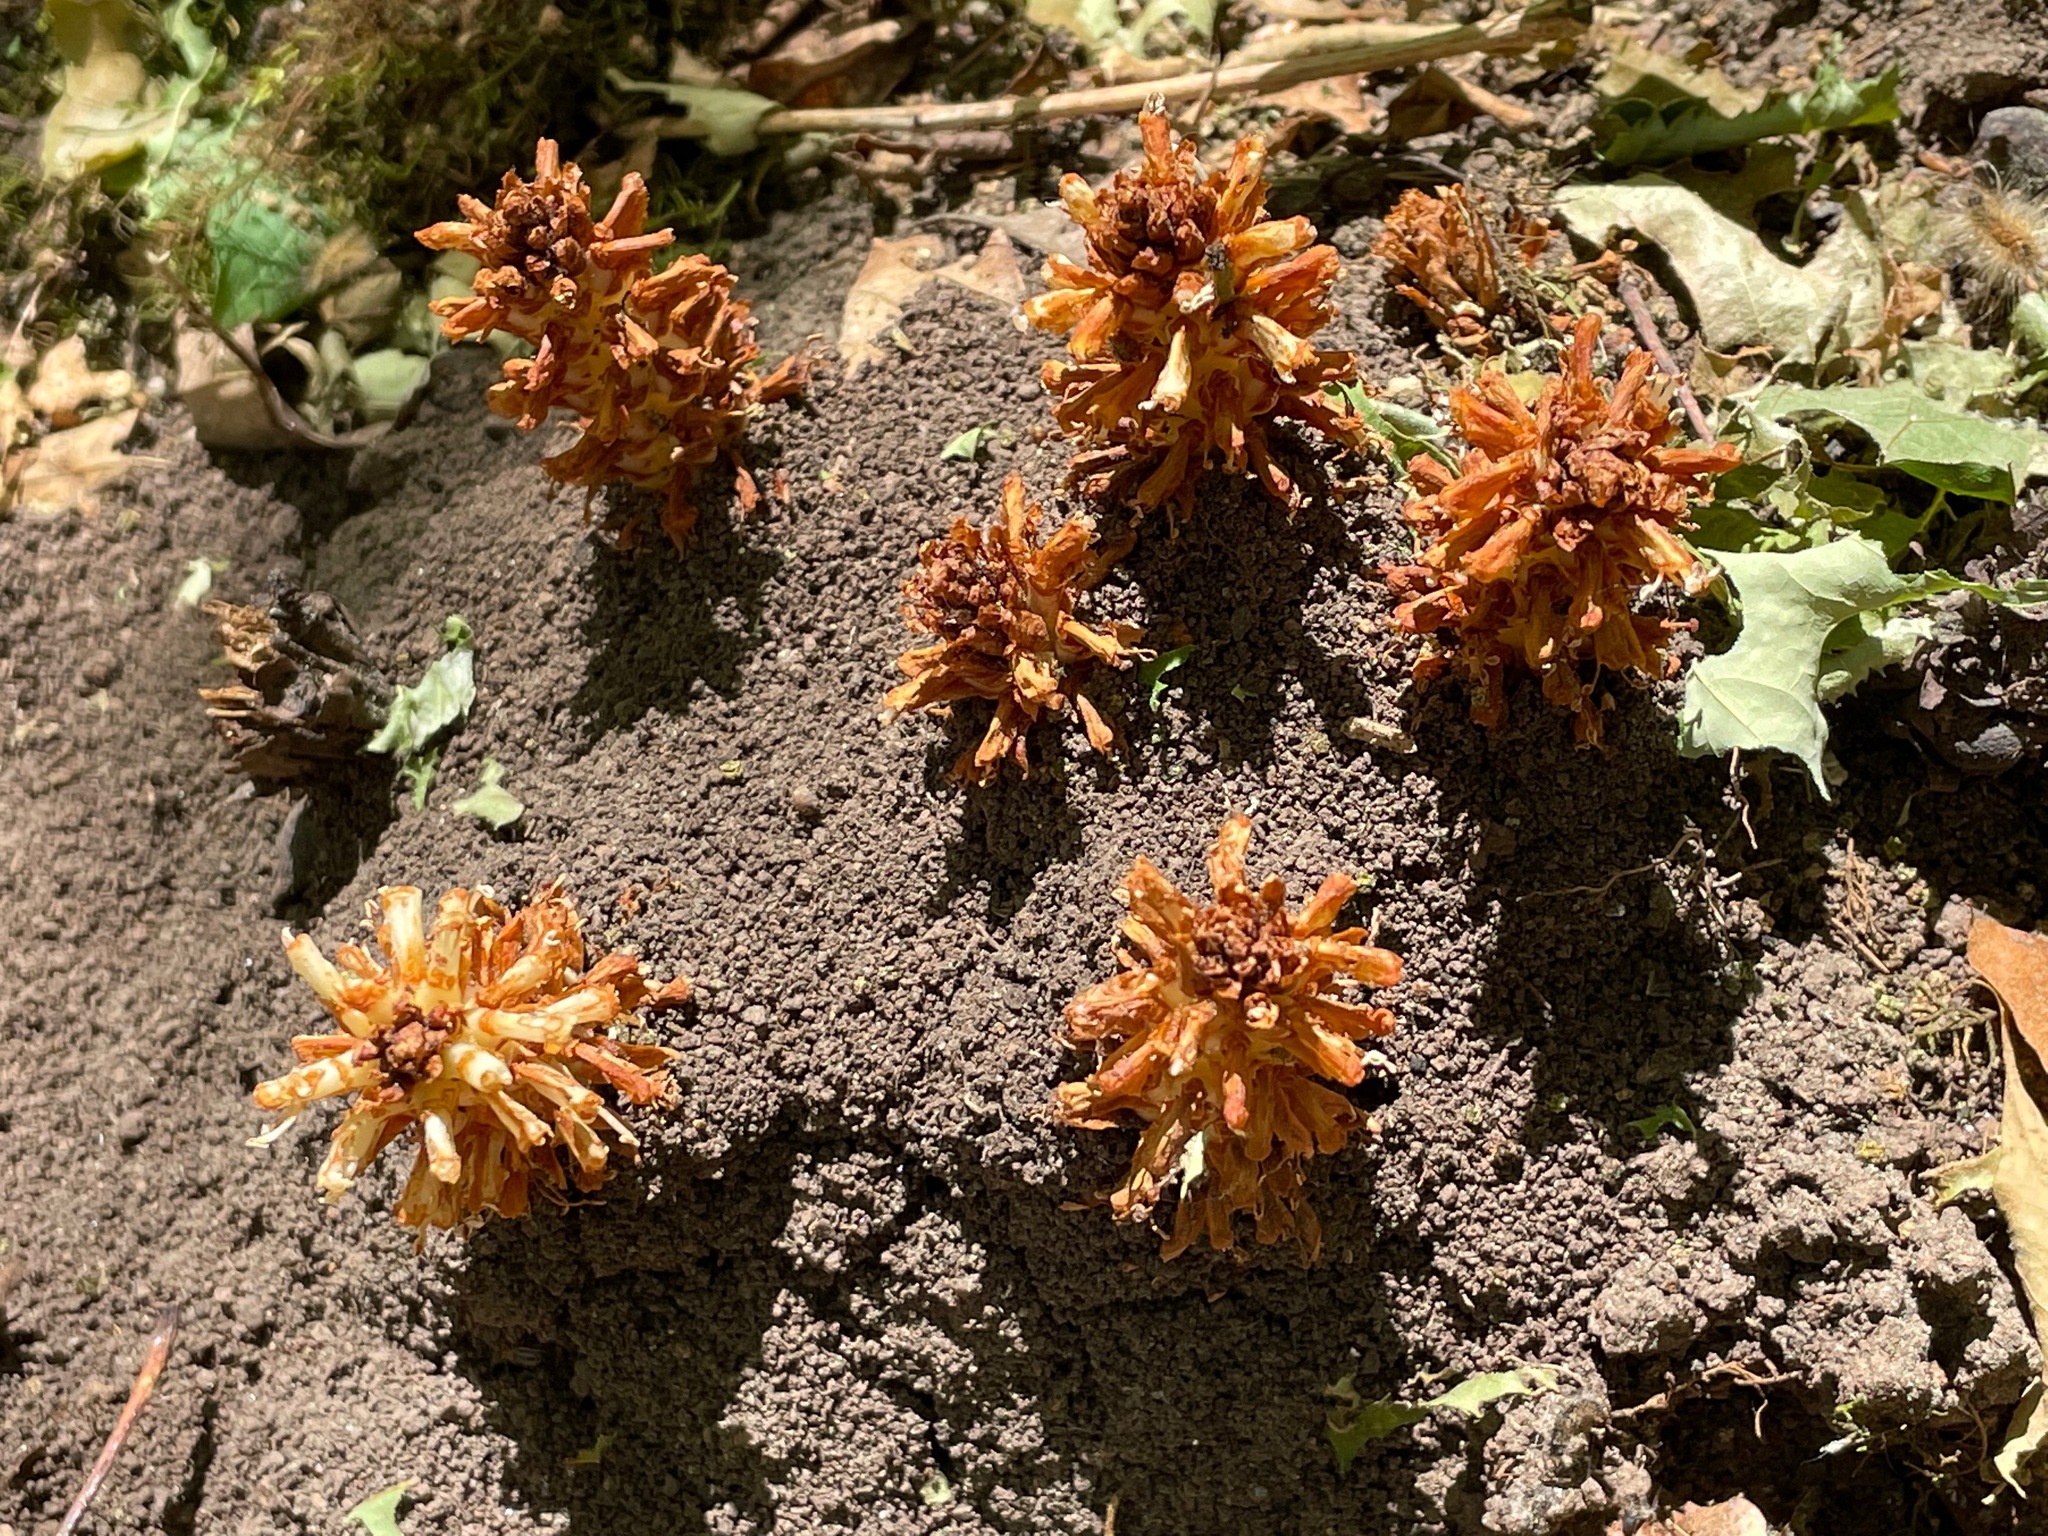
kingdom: Plantae
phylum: Tracheophyta
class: Magnoliopsida
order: Lamiales
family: Orobanchaceae
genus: Conopholis
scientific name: Conopholis americana
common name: American cancer-root
